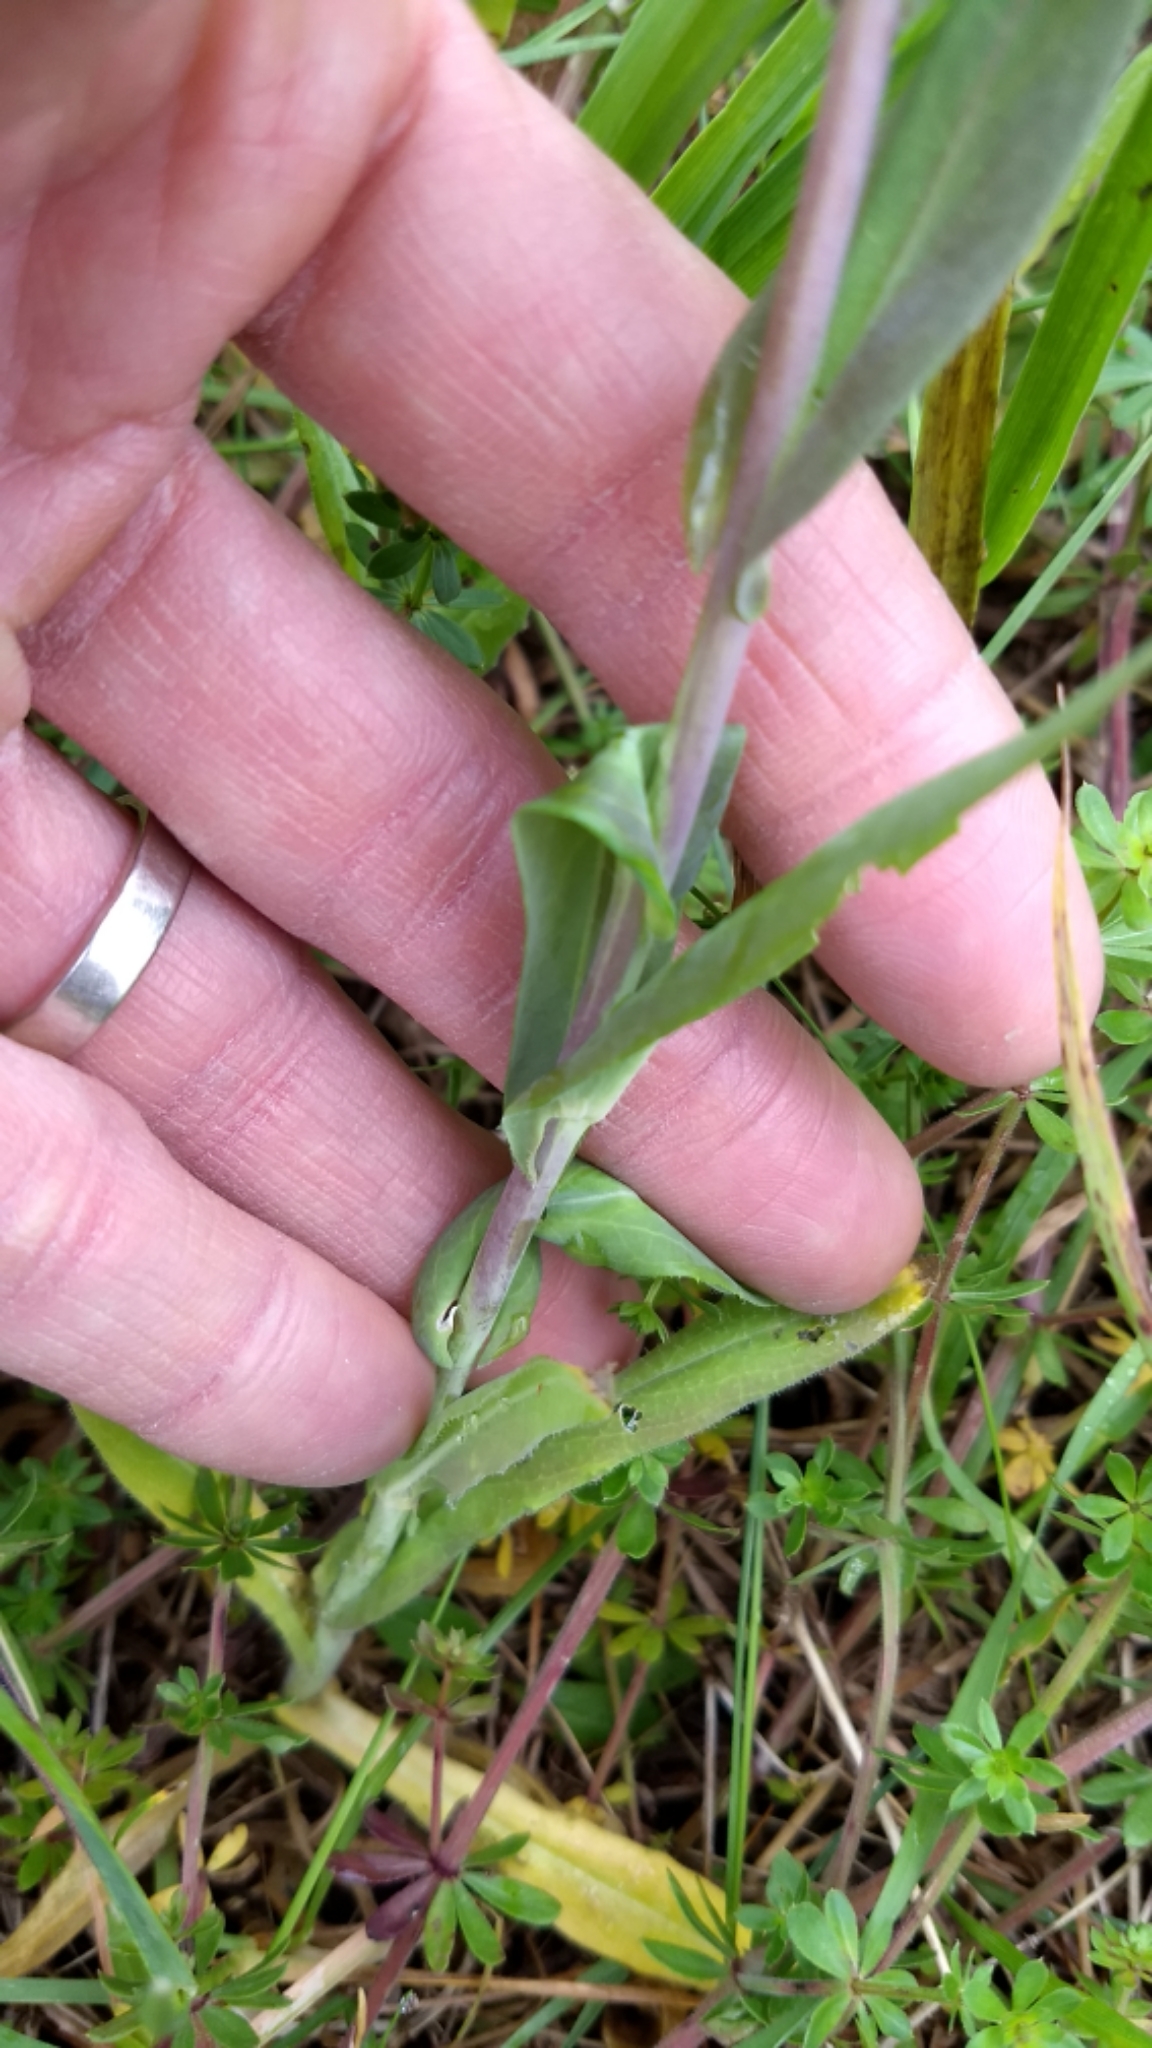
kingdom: Plantae
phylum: Tracheophyta
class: Magnoliopsida
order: Brassicales
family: Brassicaceae
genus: Turritis
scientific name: Turritis glabra
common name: Tower rockcress
